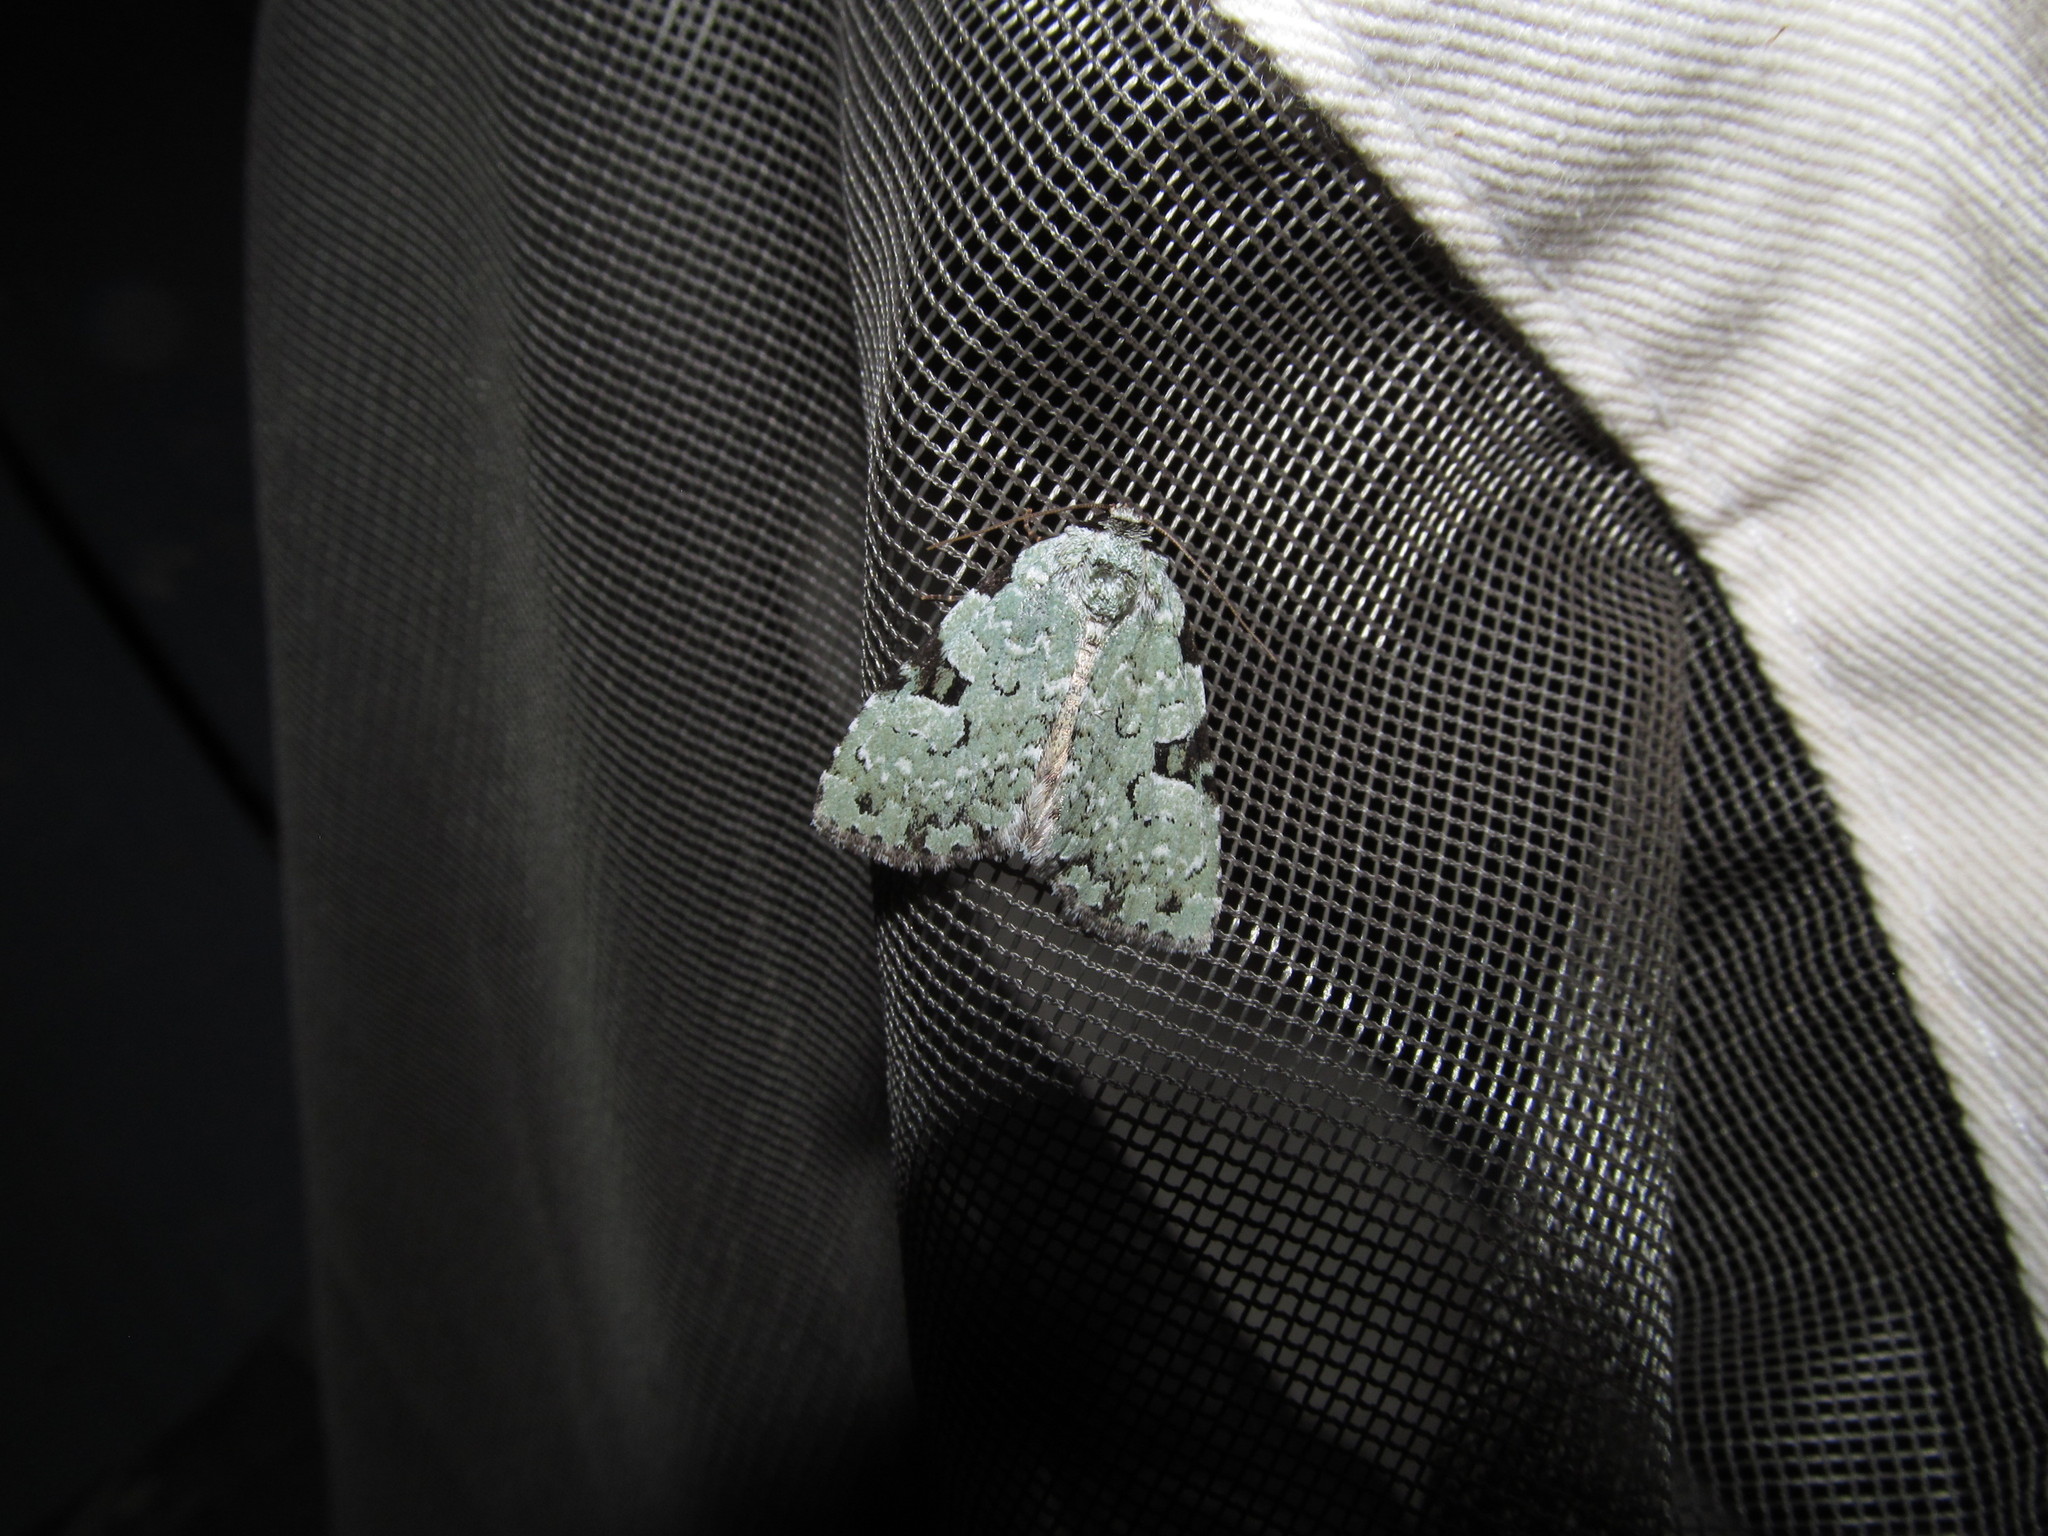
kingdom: Animalia
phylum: Arthropoda
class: Insecta
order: Lepidoptera
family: Noctuidae
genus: Leuconycta
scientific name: Leuconycta diphteroides
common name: Green leuconycta moth
